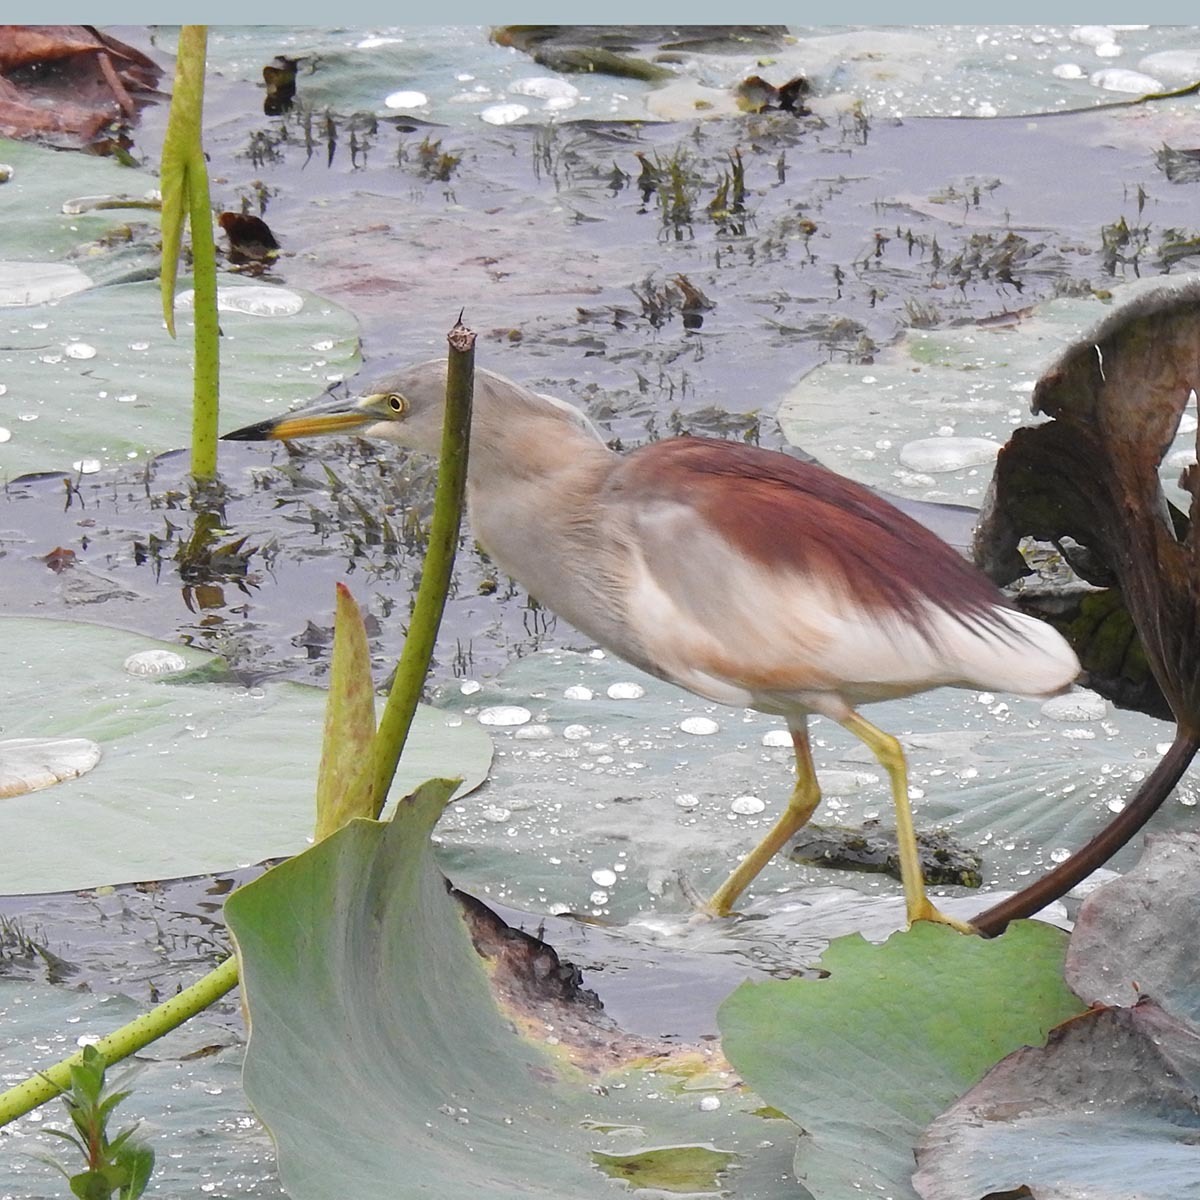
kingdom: Animalia
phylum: Chordata
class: Aves
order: Pelecaniformes
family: Ardeidae
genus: Ardeola
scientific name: Ardeola grayii
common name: Indian pond heron
